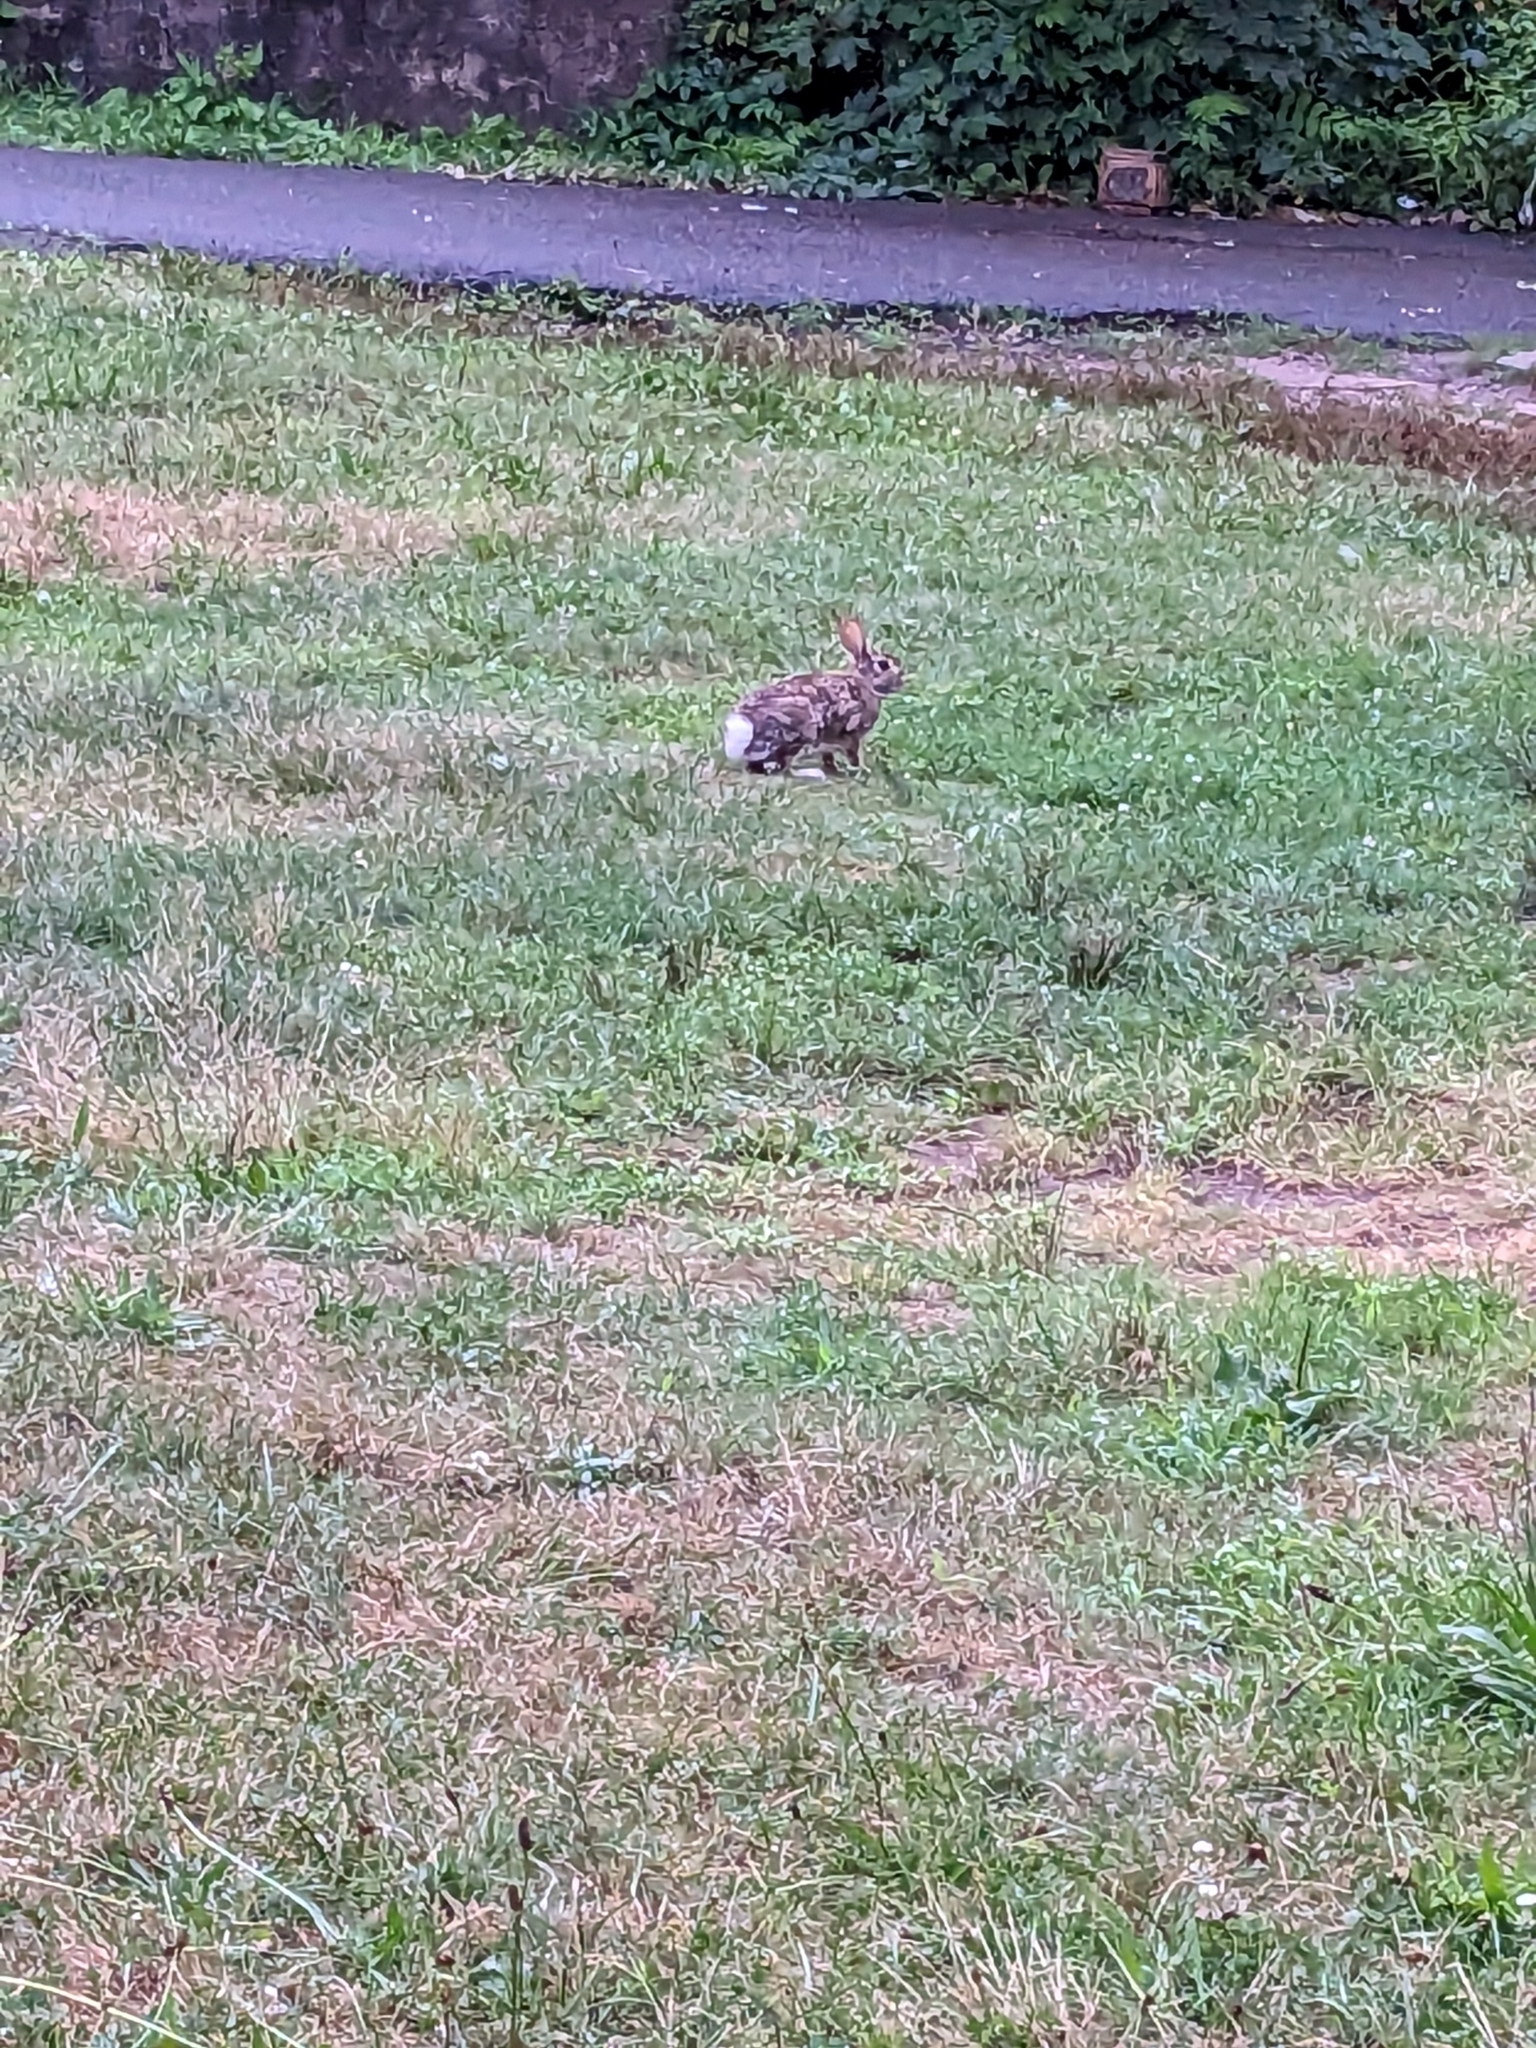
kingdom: Animalia
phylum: Chordata
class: Mammalia
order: Lagomorpha
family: Leporidae
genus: Sylvilagus
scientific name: Sylvilagus floridanus
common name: Eastern cottontail
